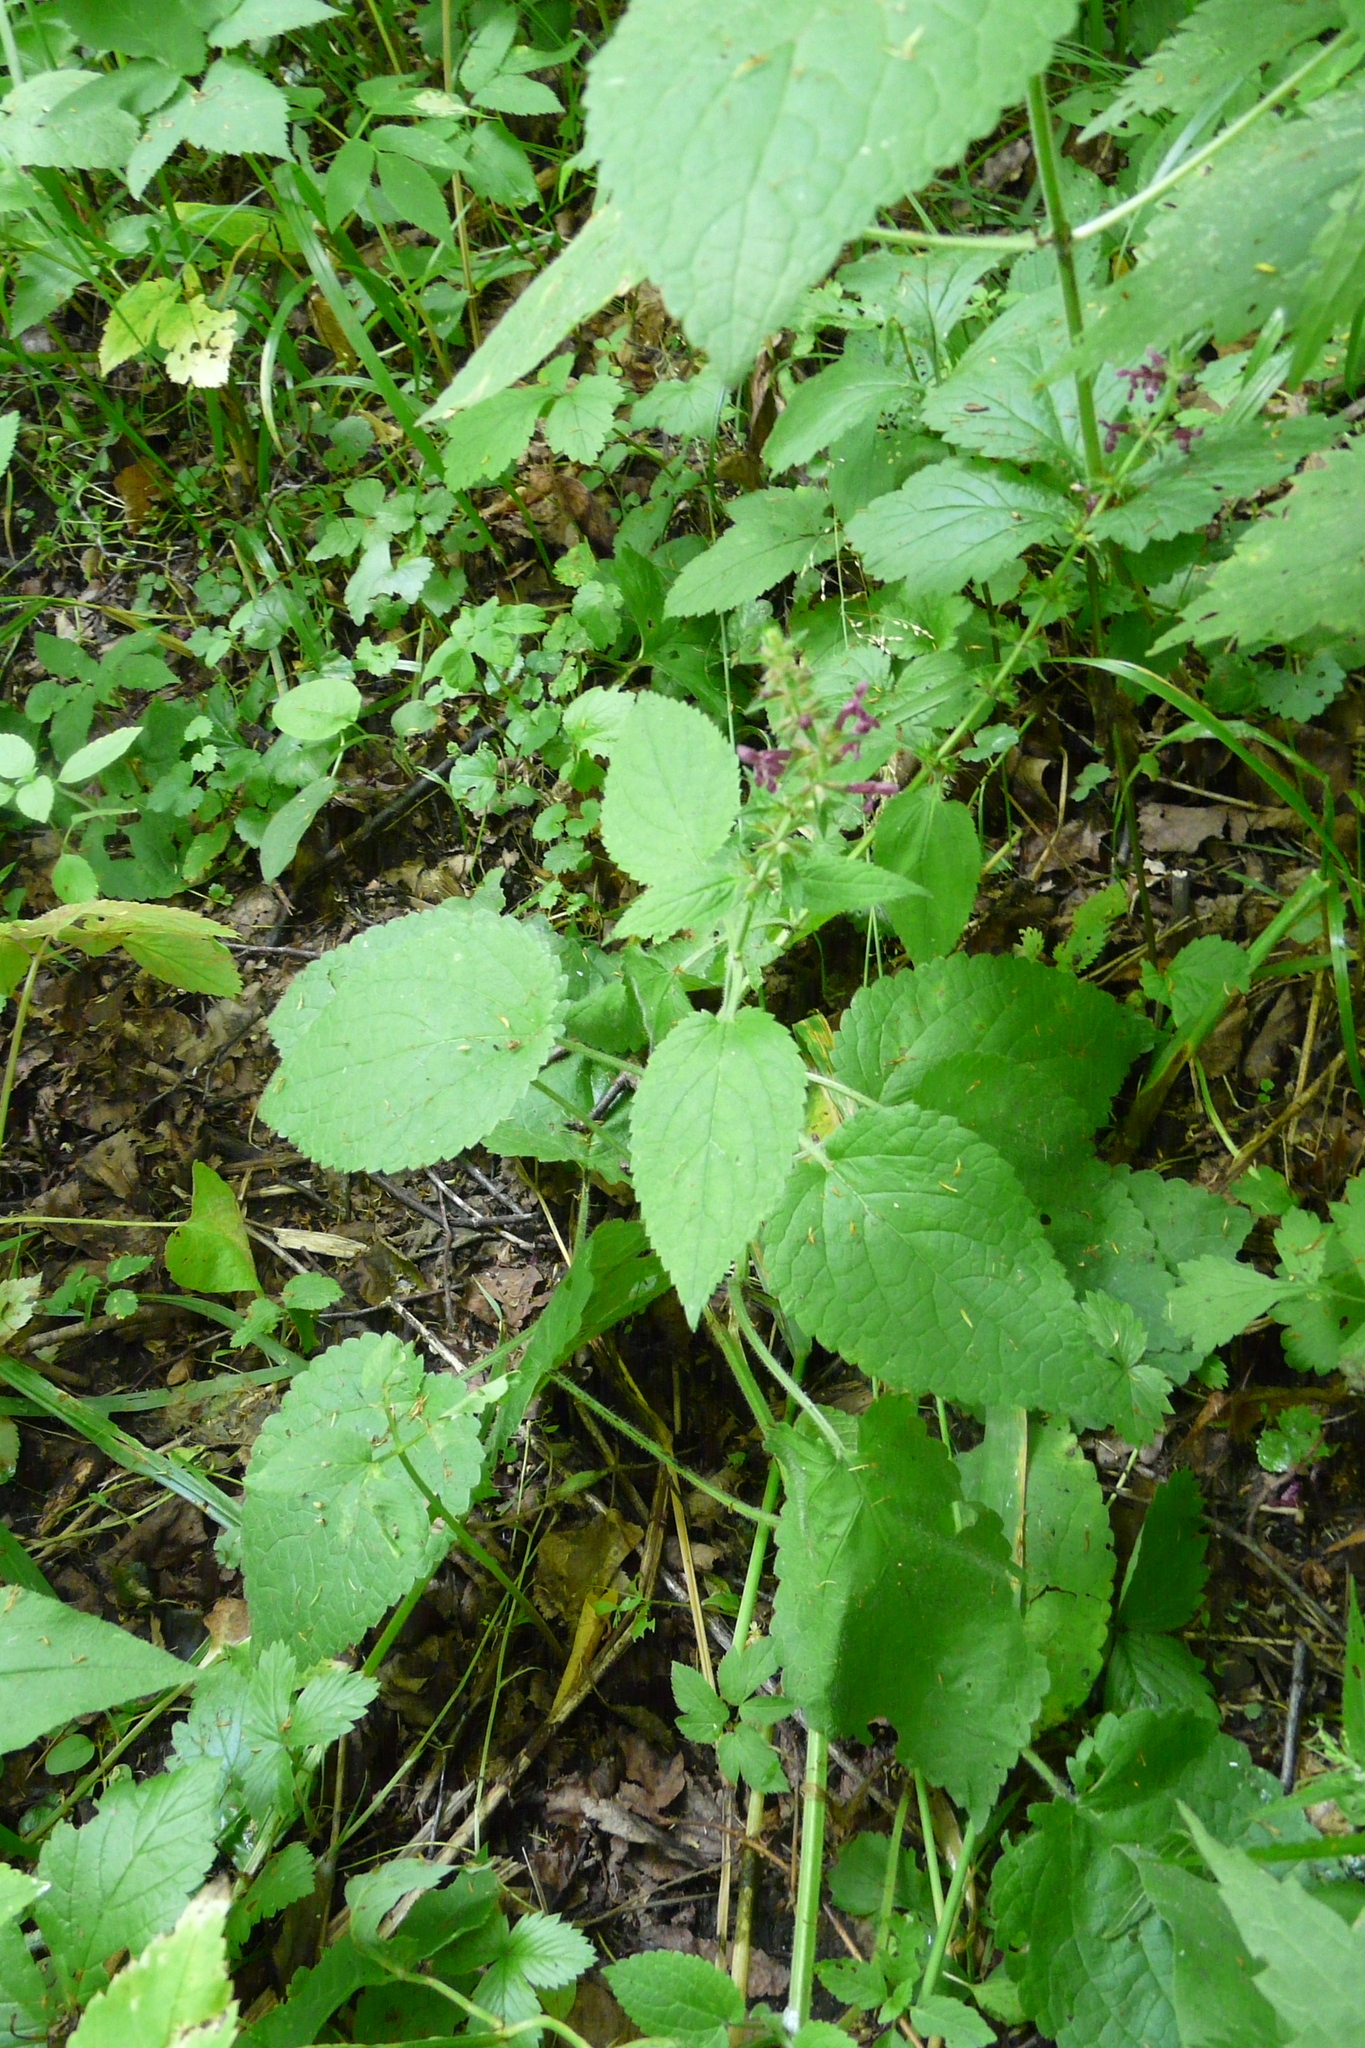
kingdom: Plantae
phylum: Tracheophyta
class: Magnoliopsida
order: Lamiales
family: Lamiaceae
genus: Stachys
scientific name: Stachys sylvatica
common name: Hedge woundwort
